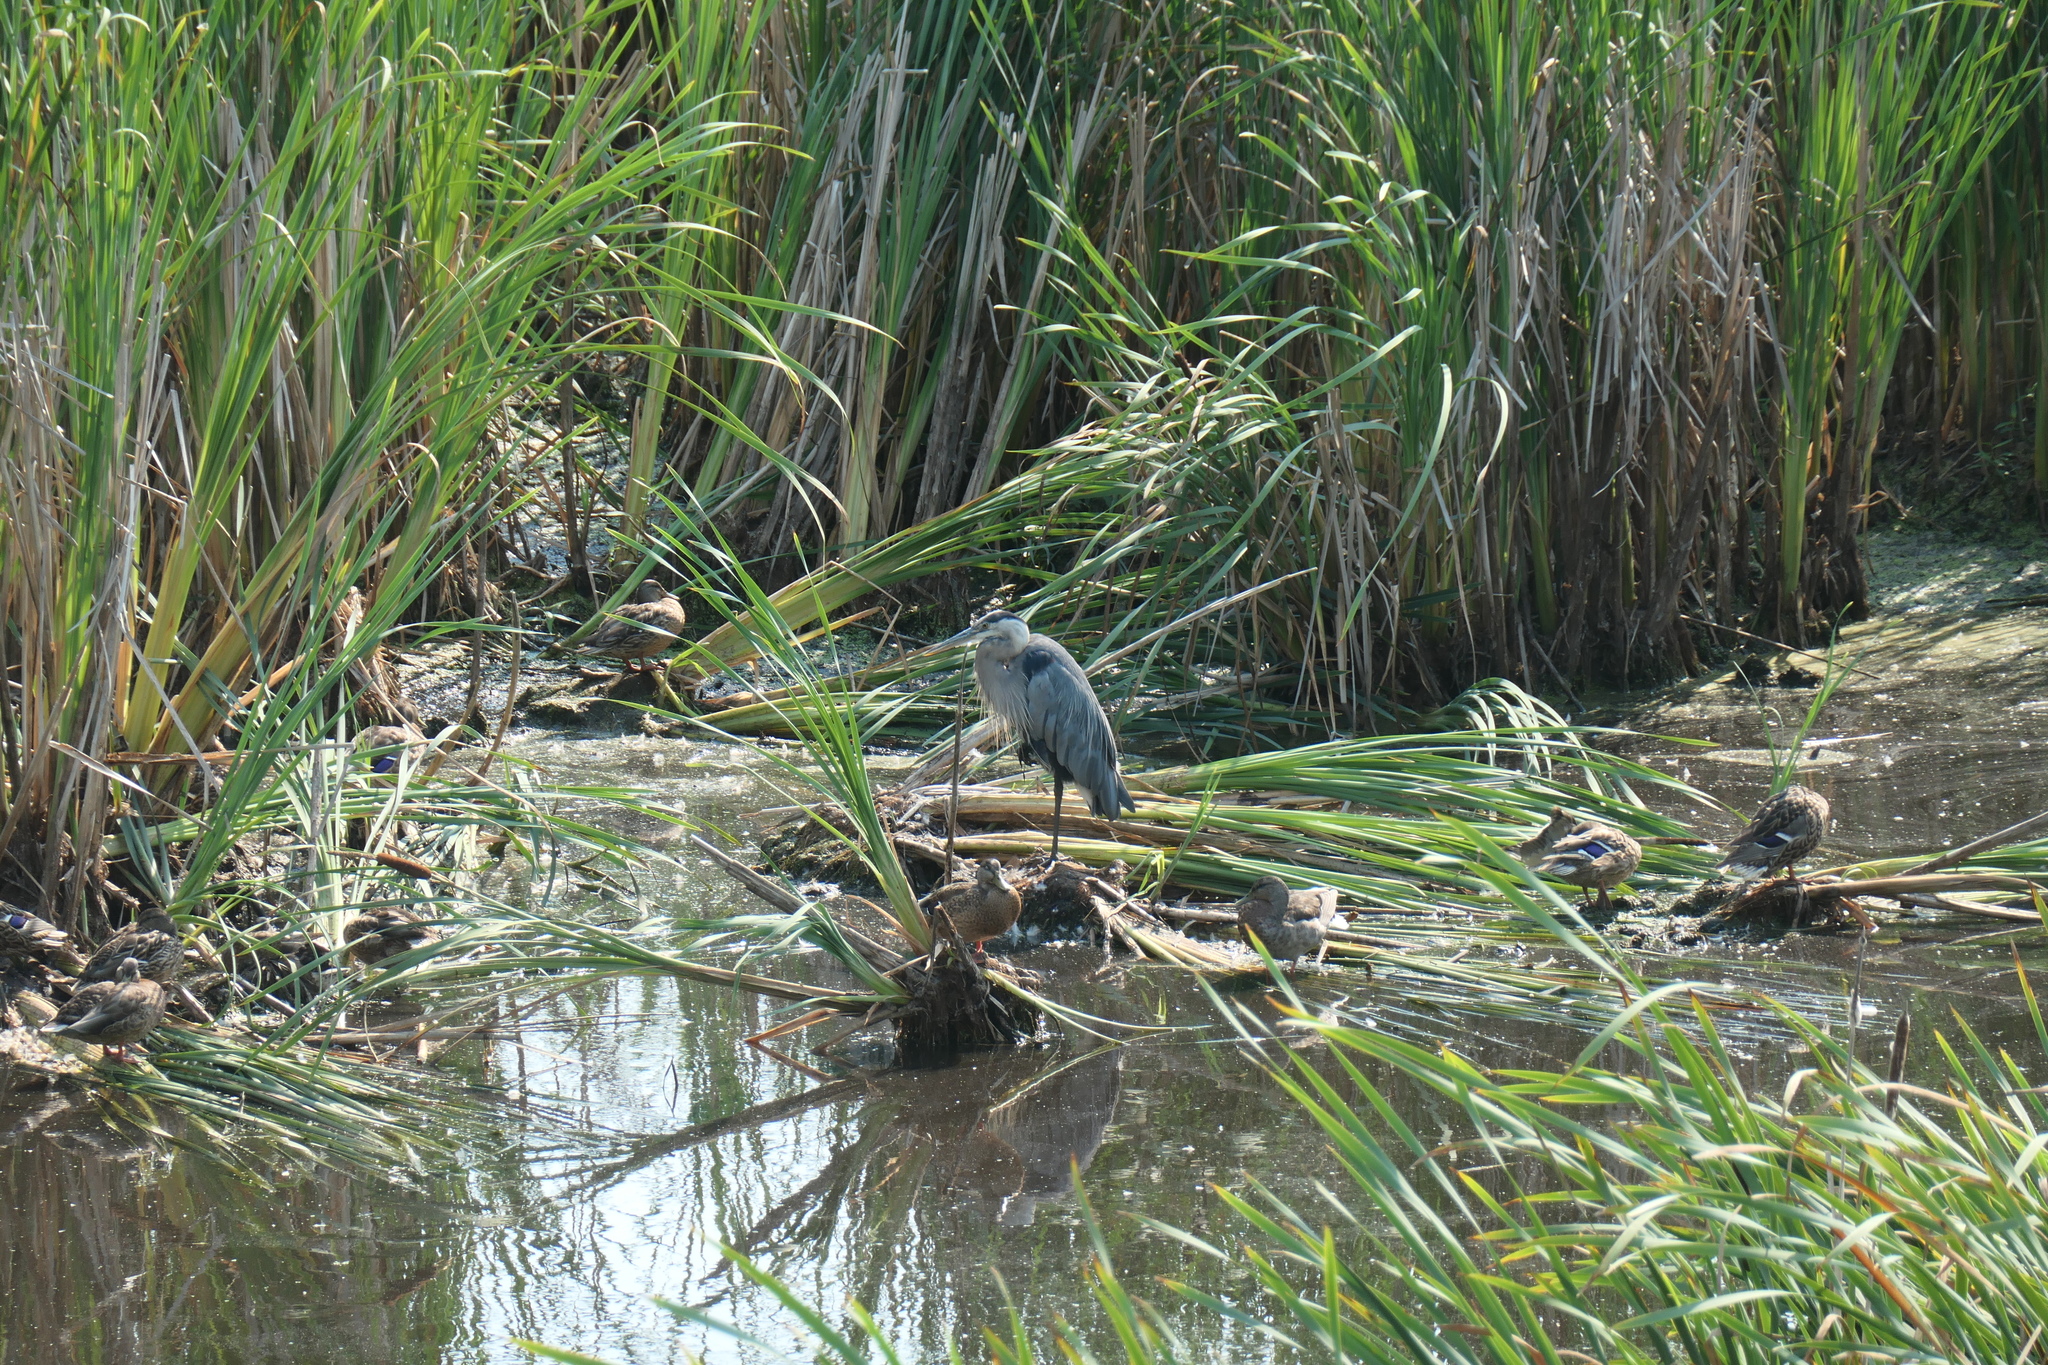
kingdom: Animalia
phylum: Chordata
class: Aves
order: Pelecaniformes
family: Ardeidae
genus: Ardea
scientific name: Ardea herodias
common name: Great blue heron
